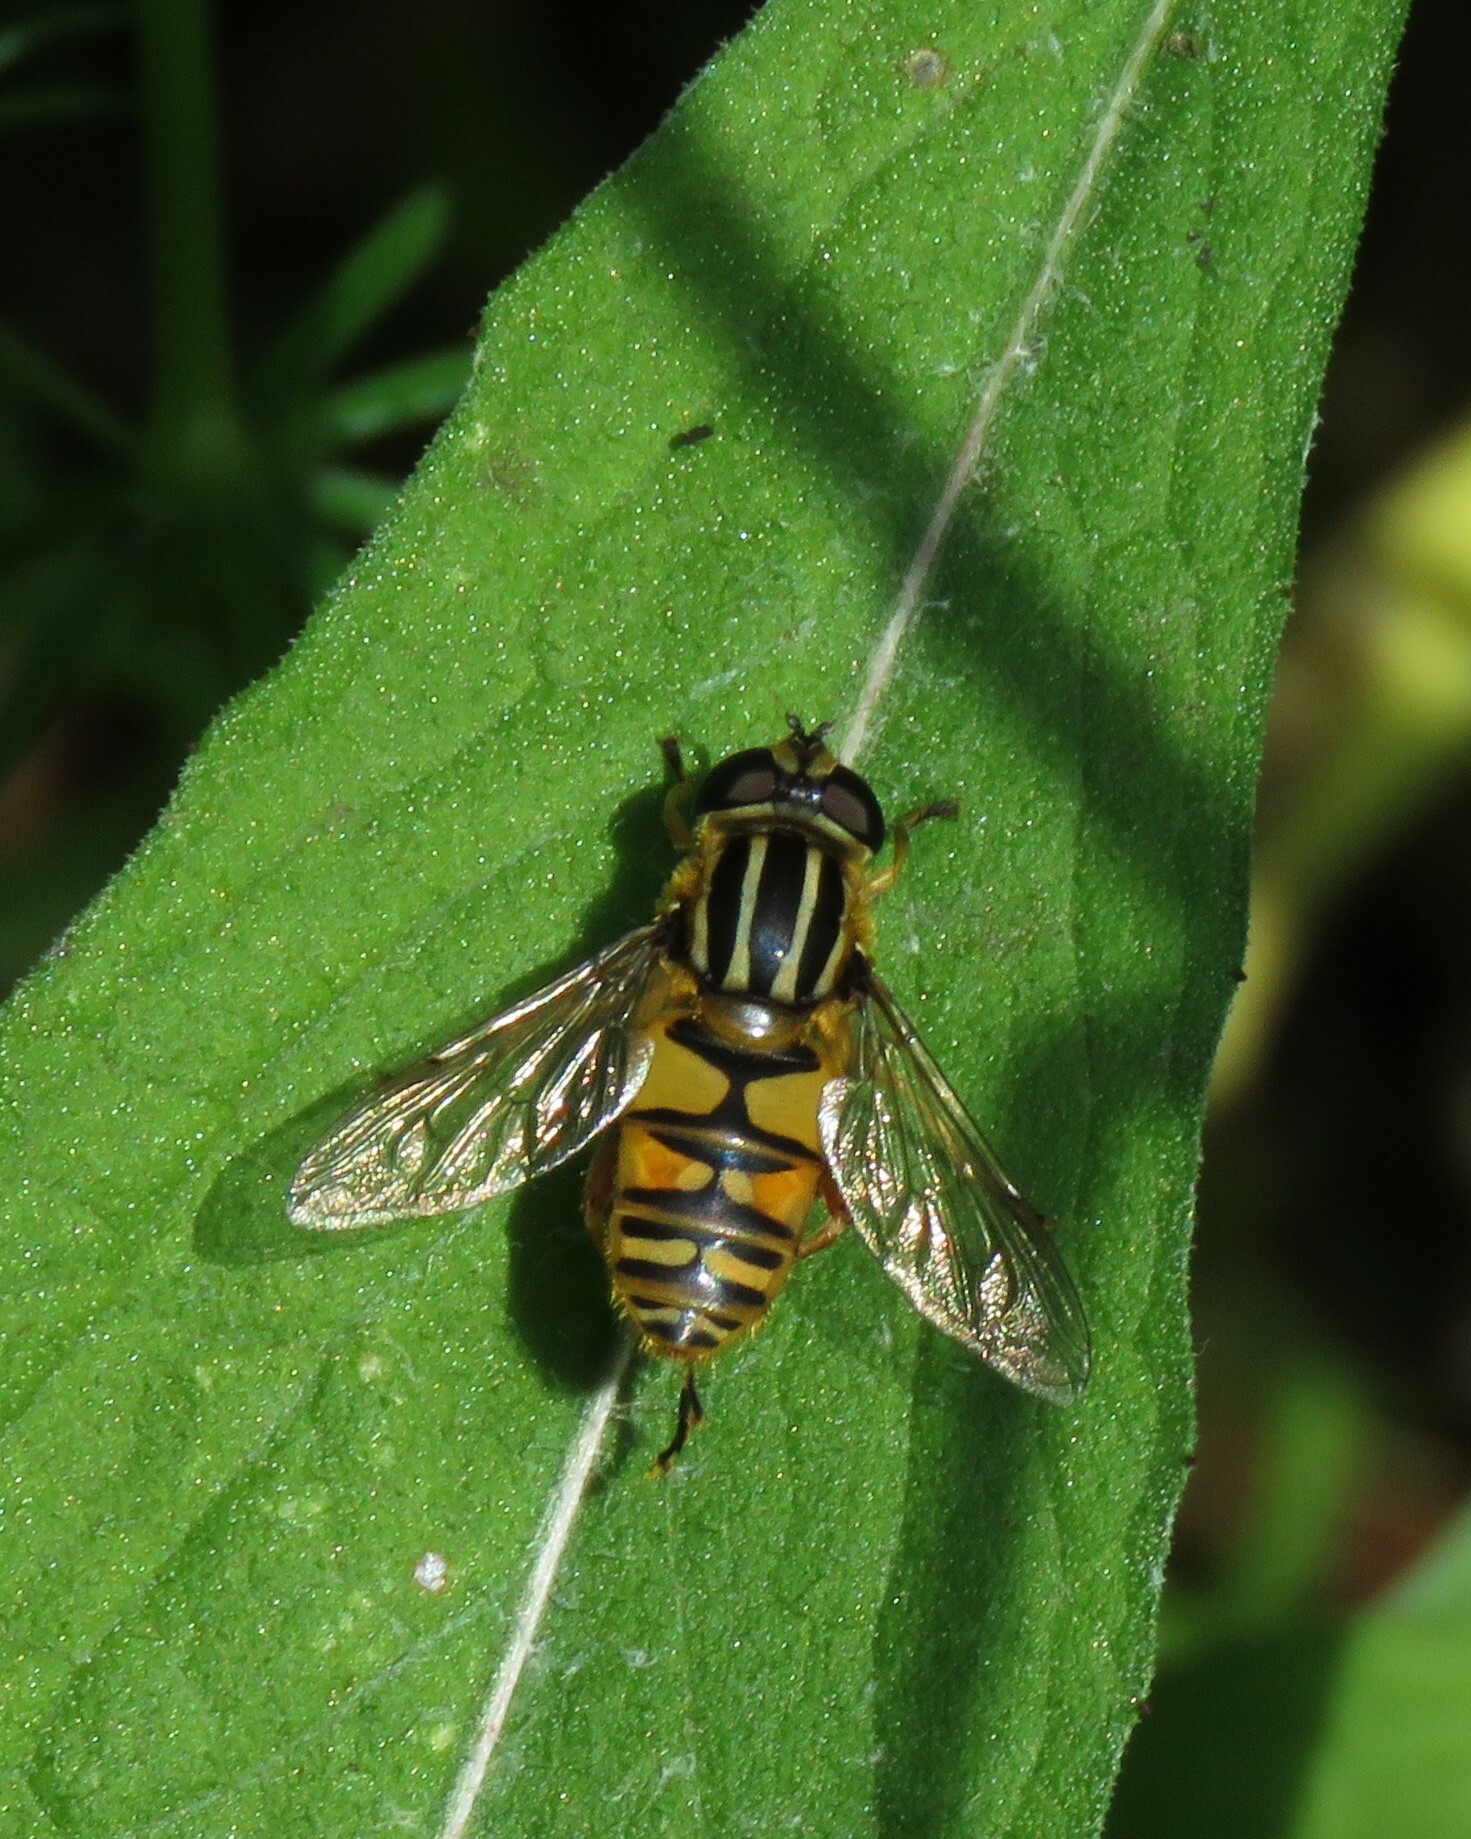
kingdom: Animalia
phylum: Arthropoda
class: Insecta
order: Diptera
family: Syrphidae
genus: Helophilus
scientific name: Helophilus pendulus
